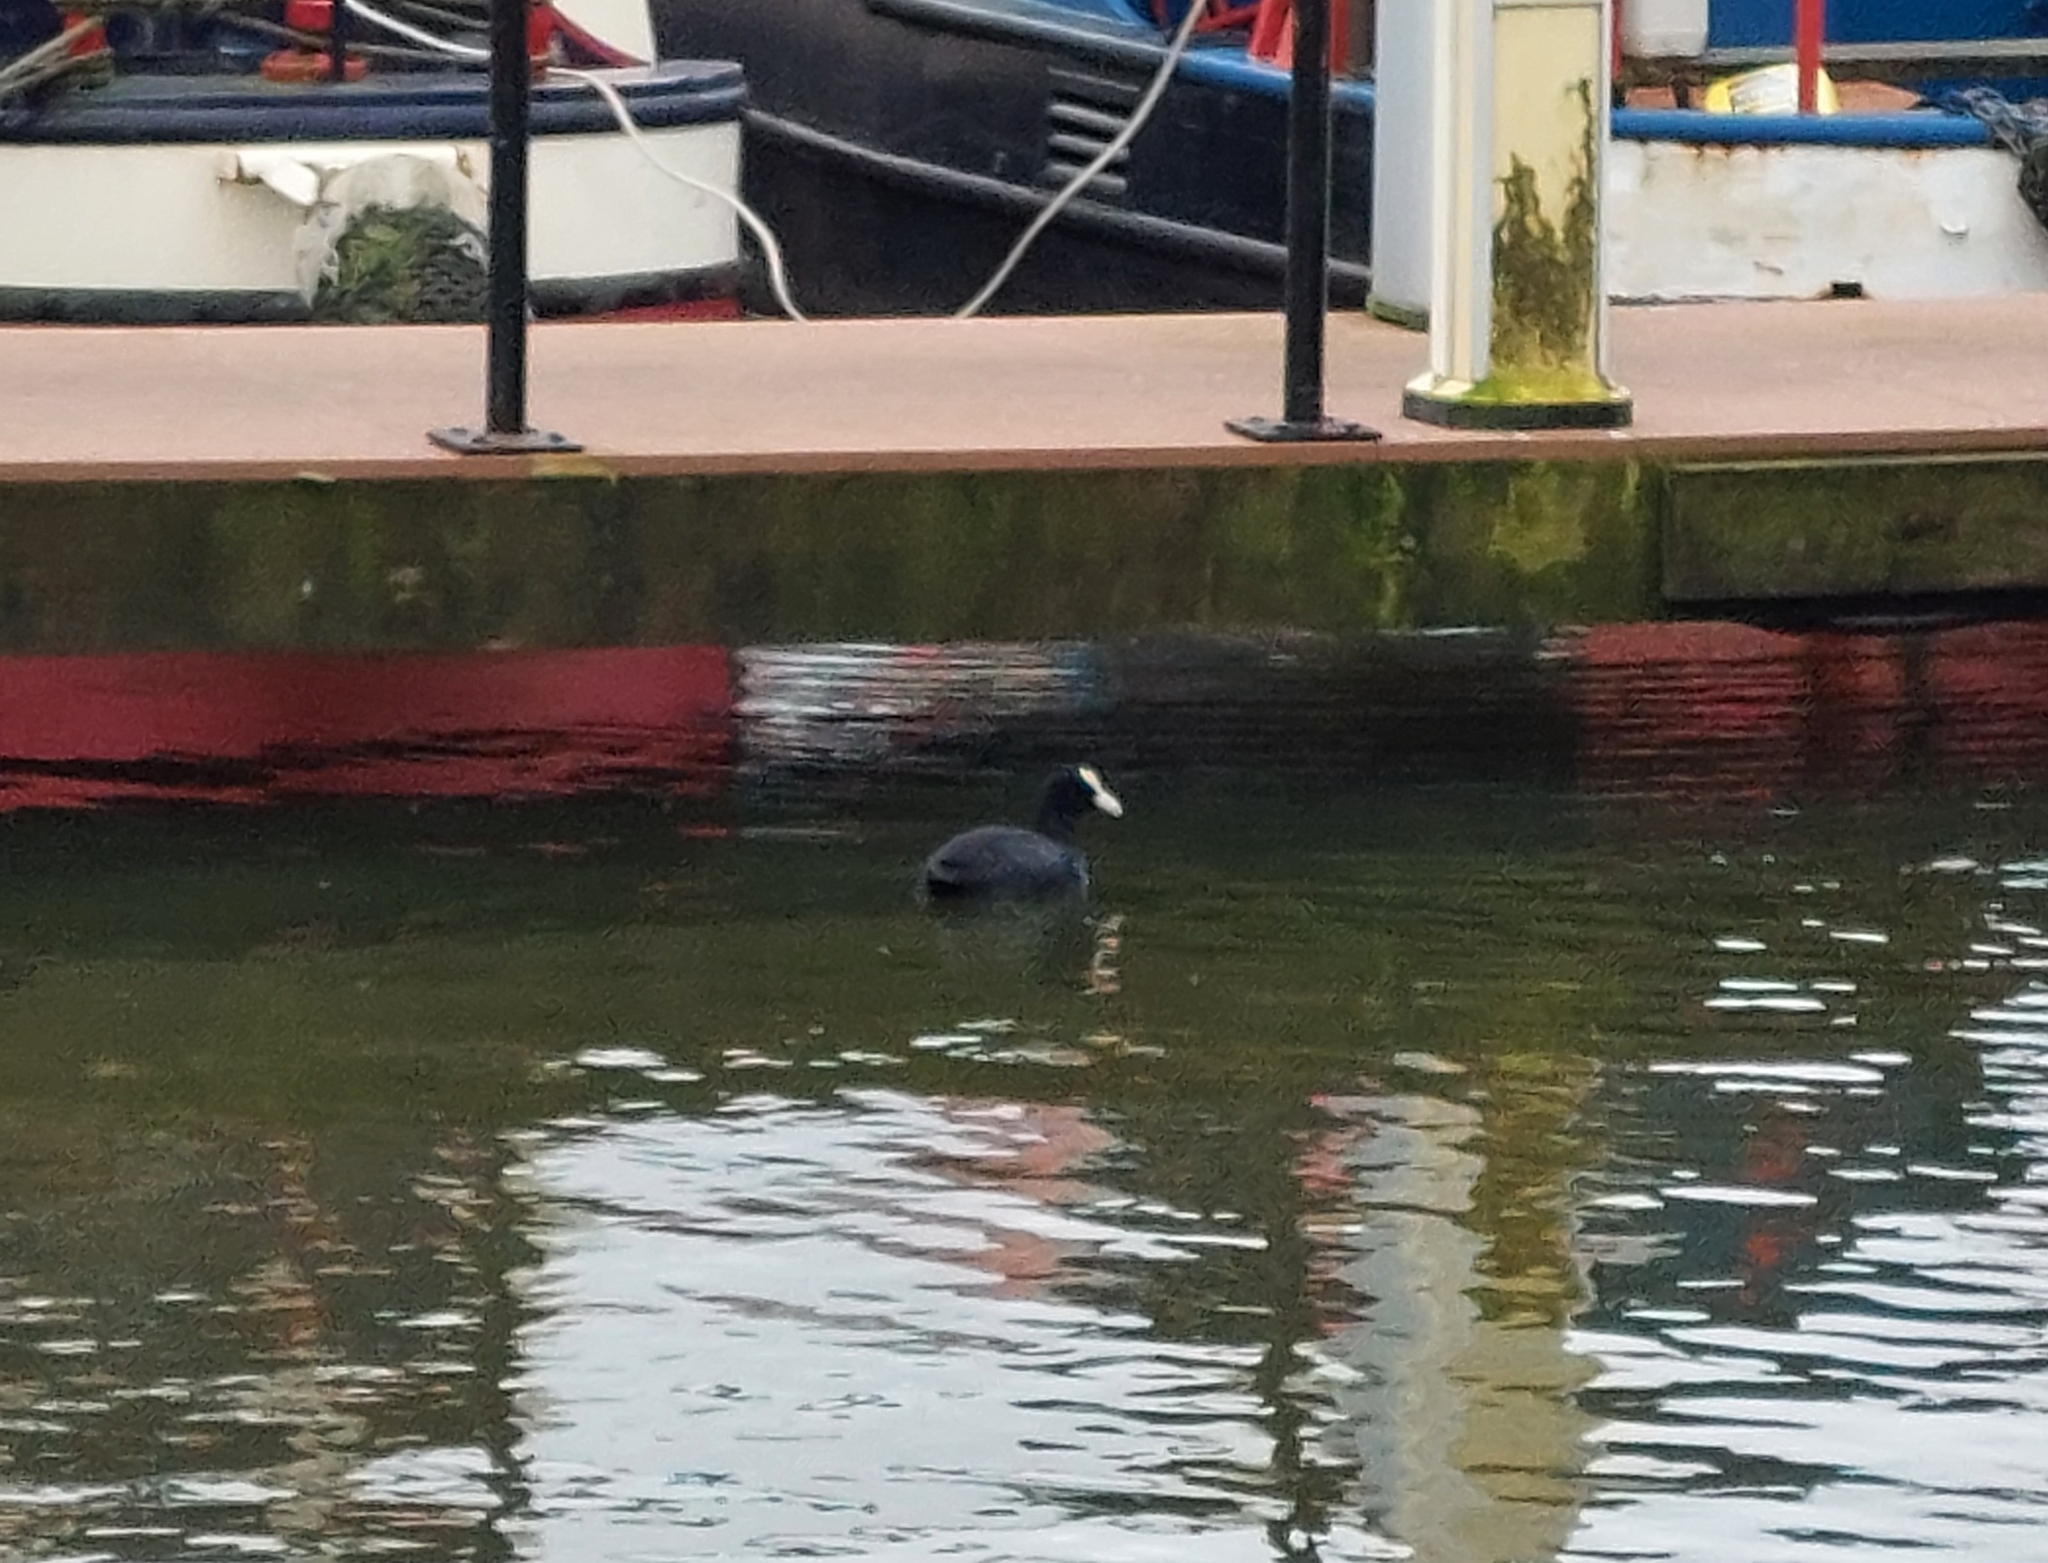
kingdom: Animalia
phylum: Chordata
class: Aves
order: Gruiformes
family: Rallidae
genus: Fulica
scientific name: Fulica atra
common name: Eurasian coot
